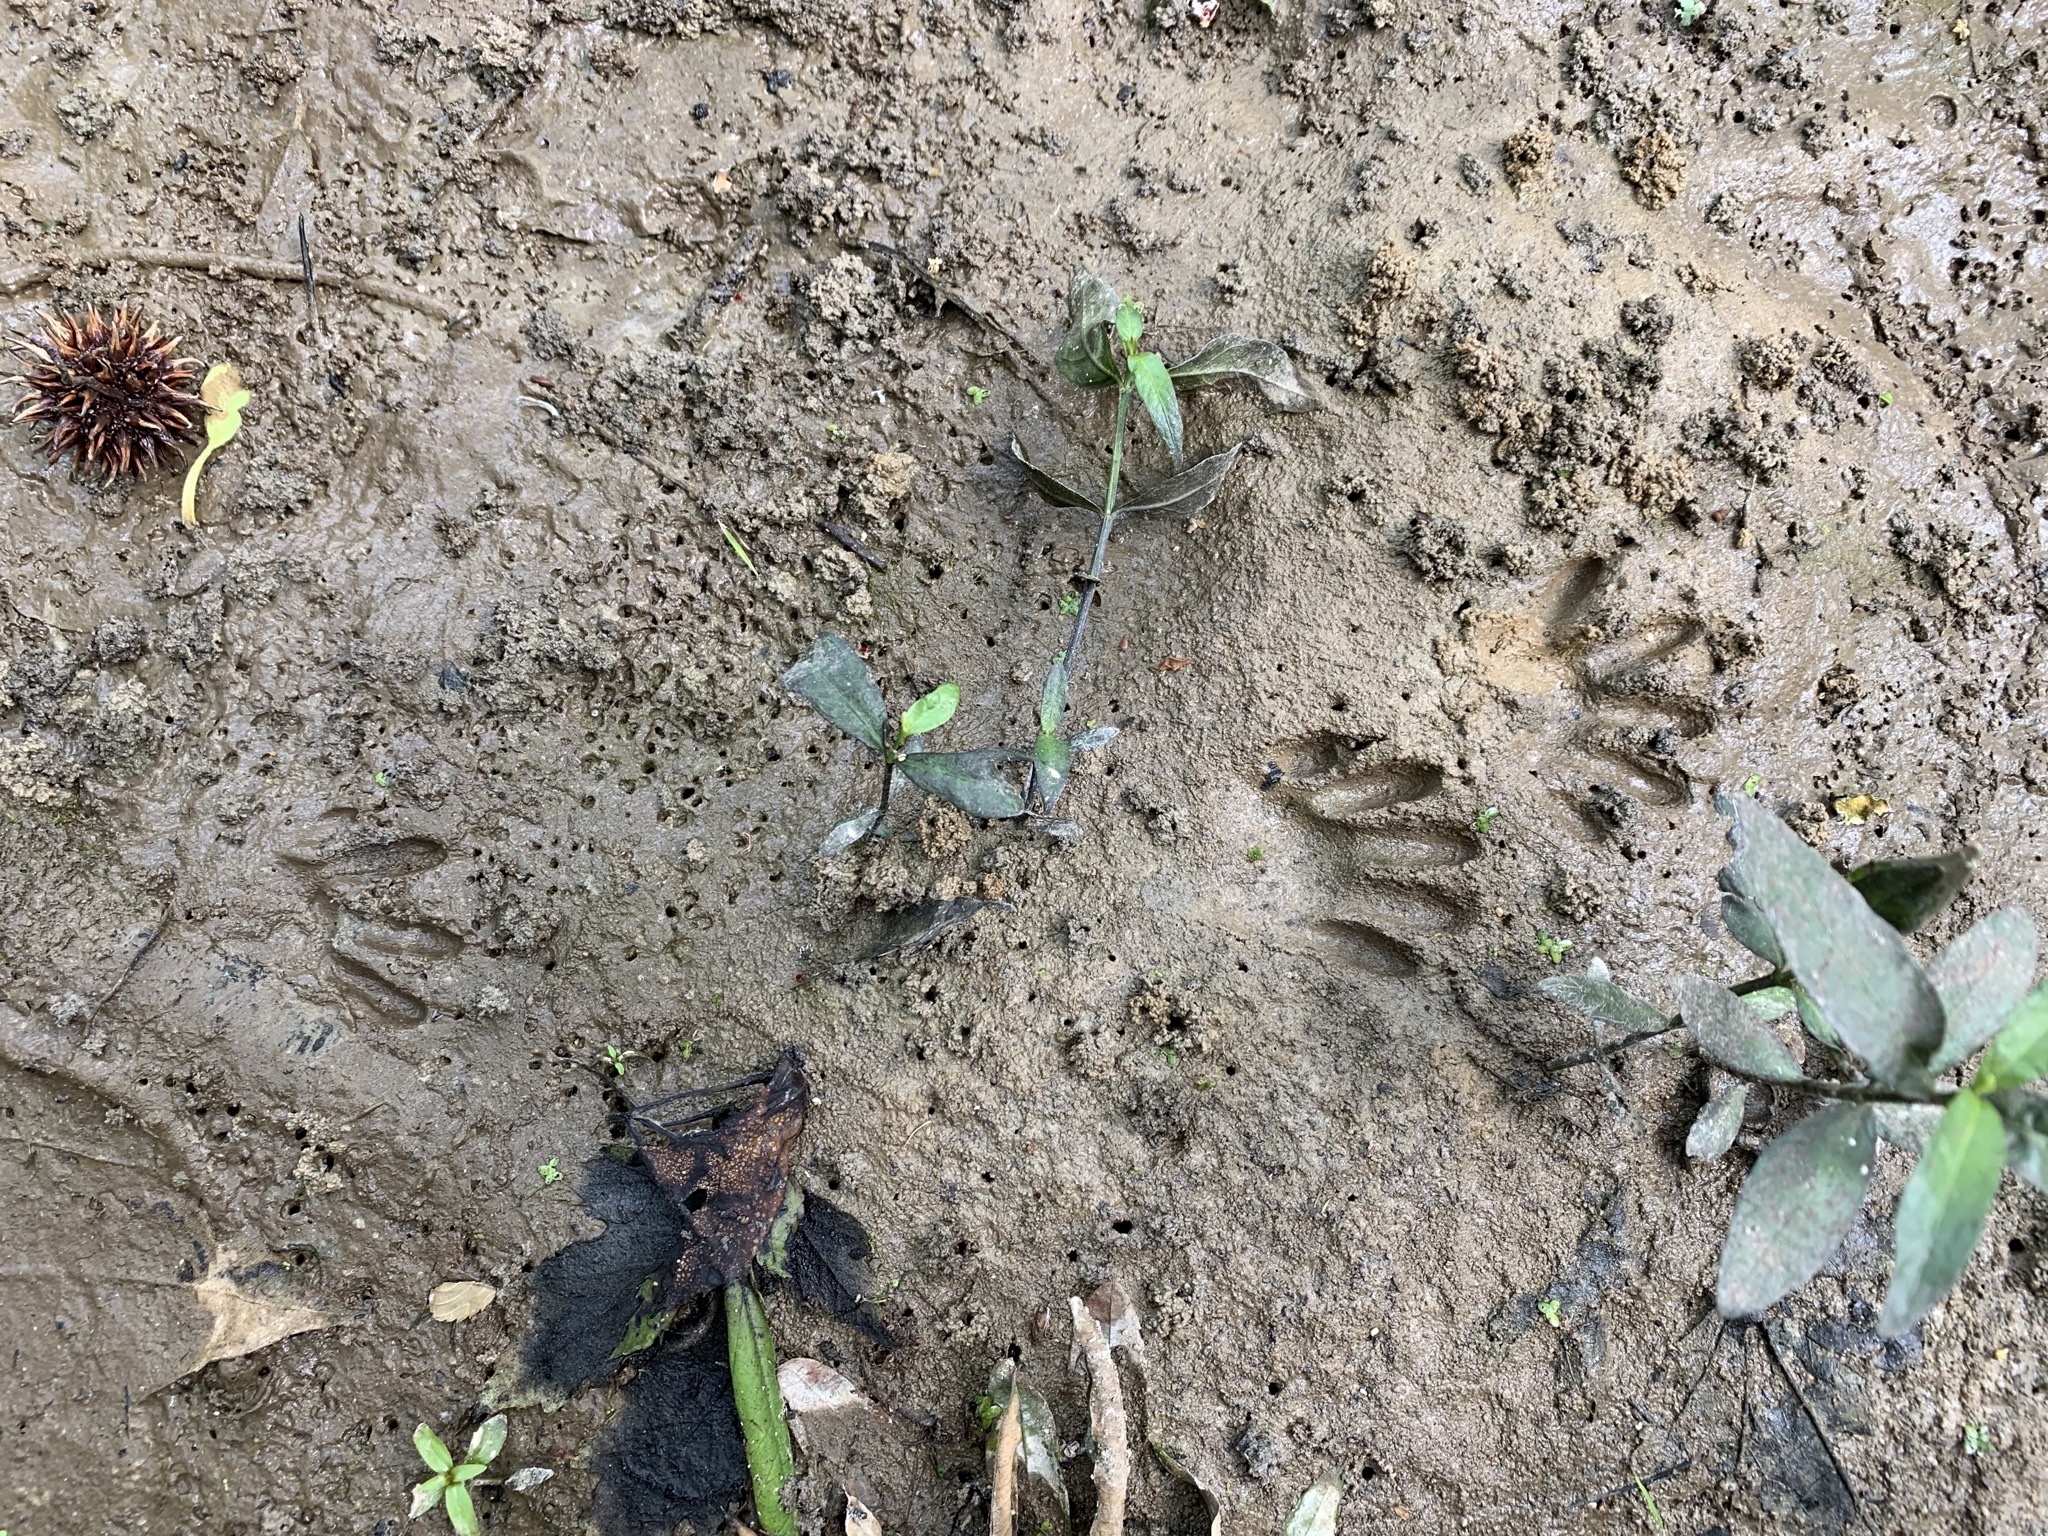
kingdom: Animalia
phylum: Chordata
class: Mammalia
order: Carnivora
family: Procyonidae
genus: Procyon
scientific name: Procyon lotor
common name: Raccoon
